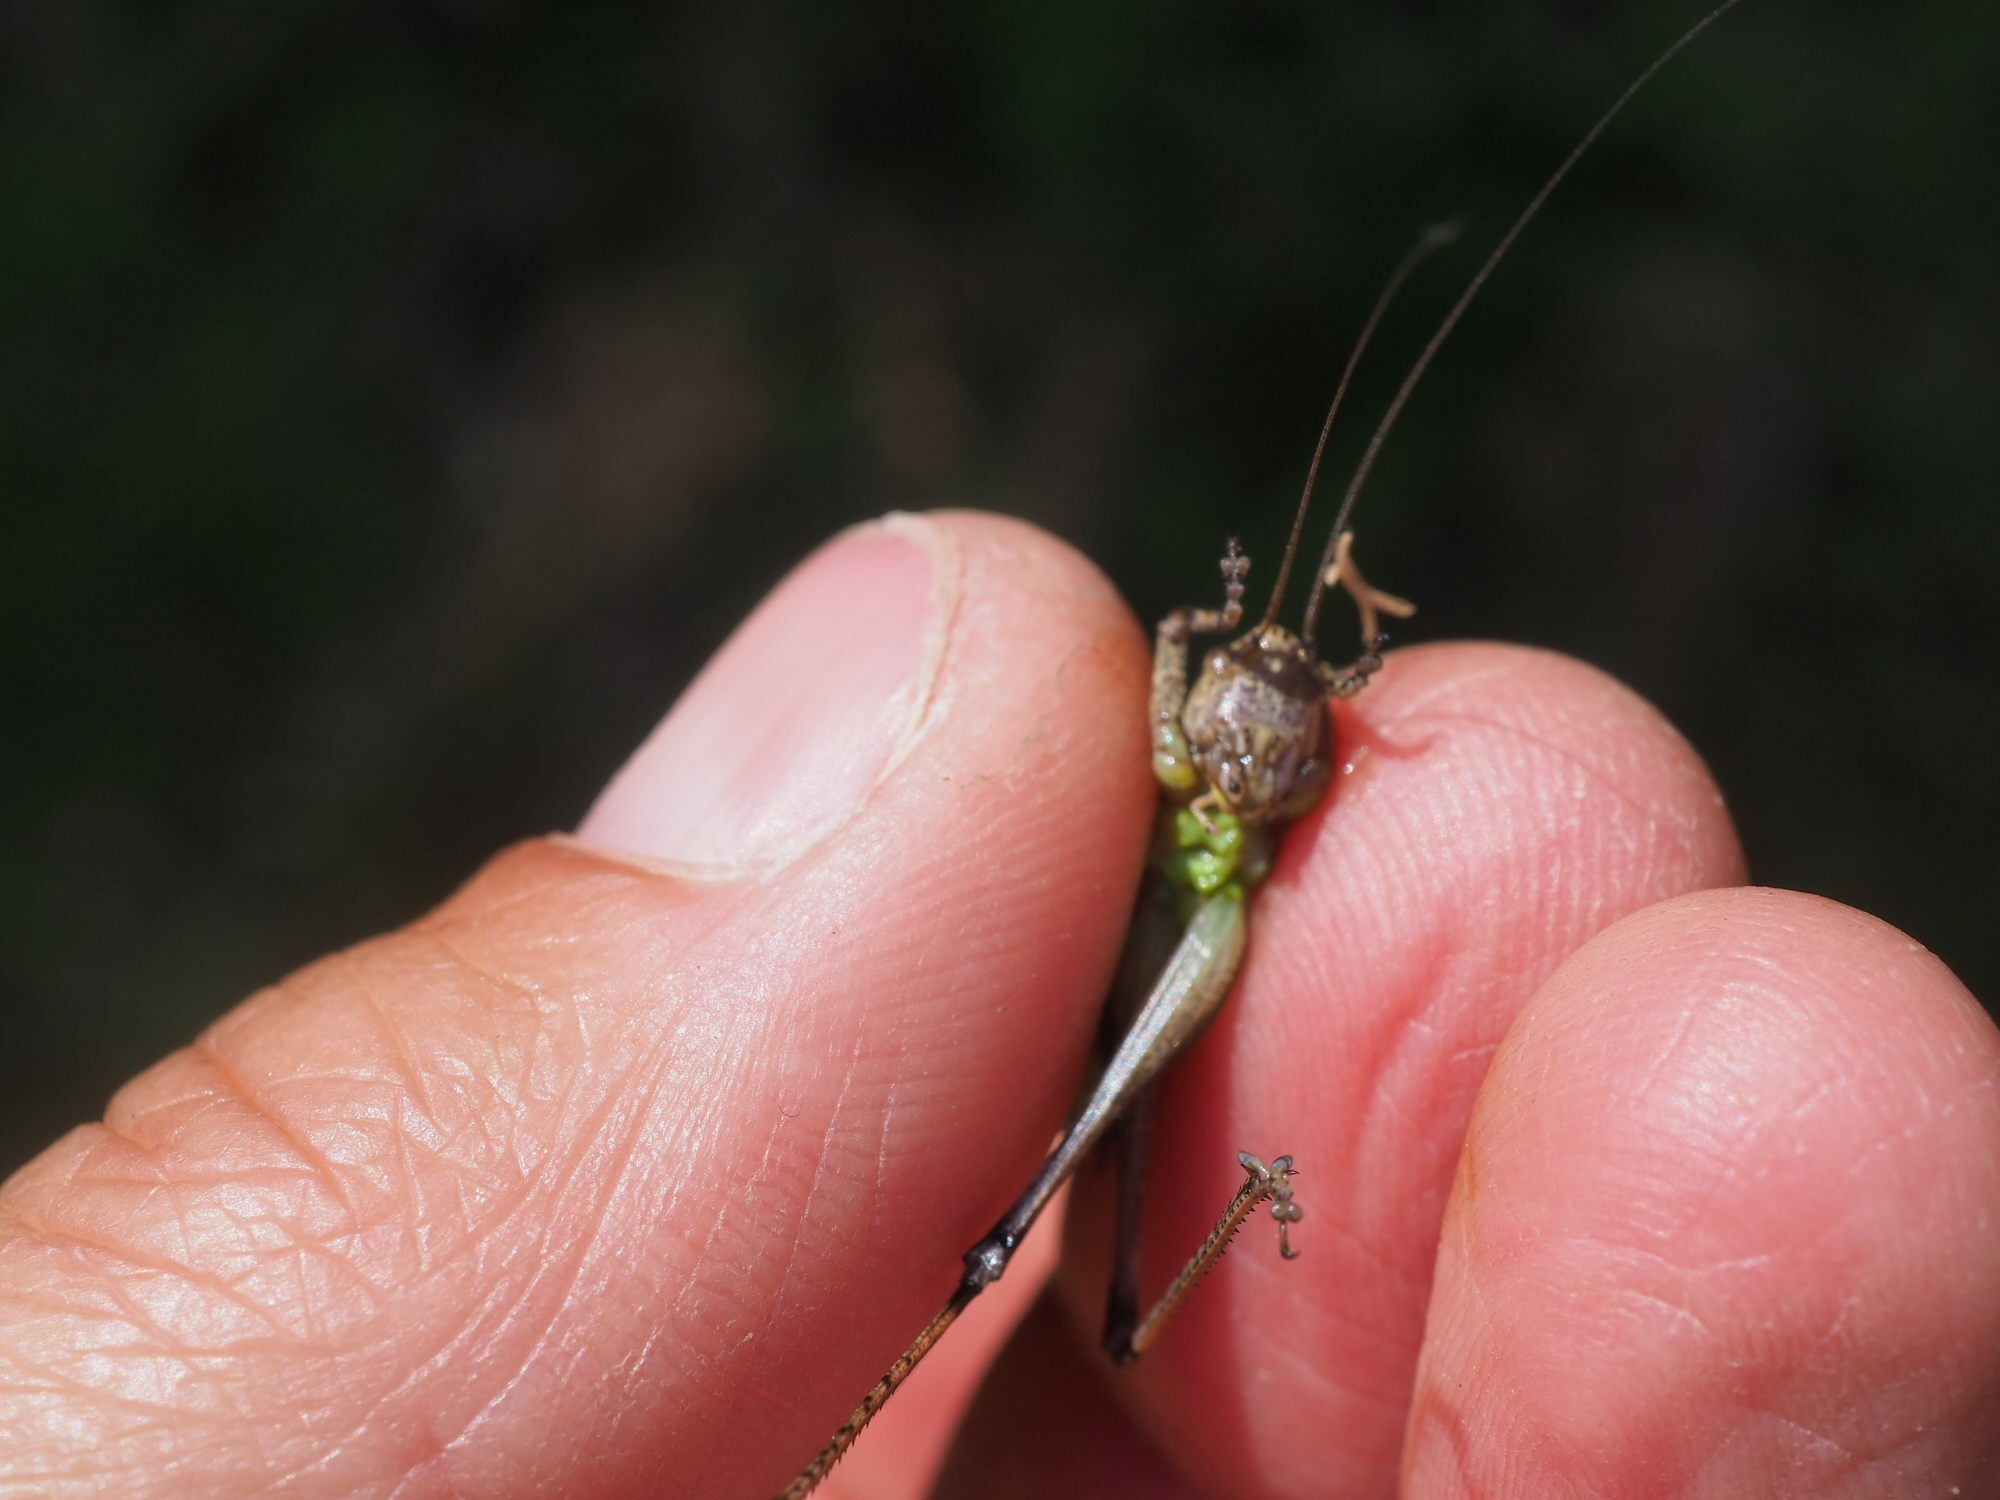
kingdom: Animalia
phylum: Arthropoda
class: Insecta
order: Orthoptera
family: Tettigoniidae
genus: Pholidoptera
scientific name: Pholidoptera griseoaptera
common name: Dark bush-cricket
